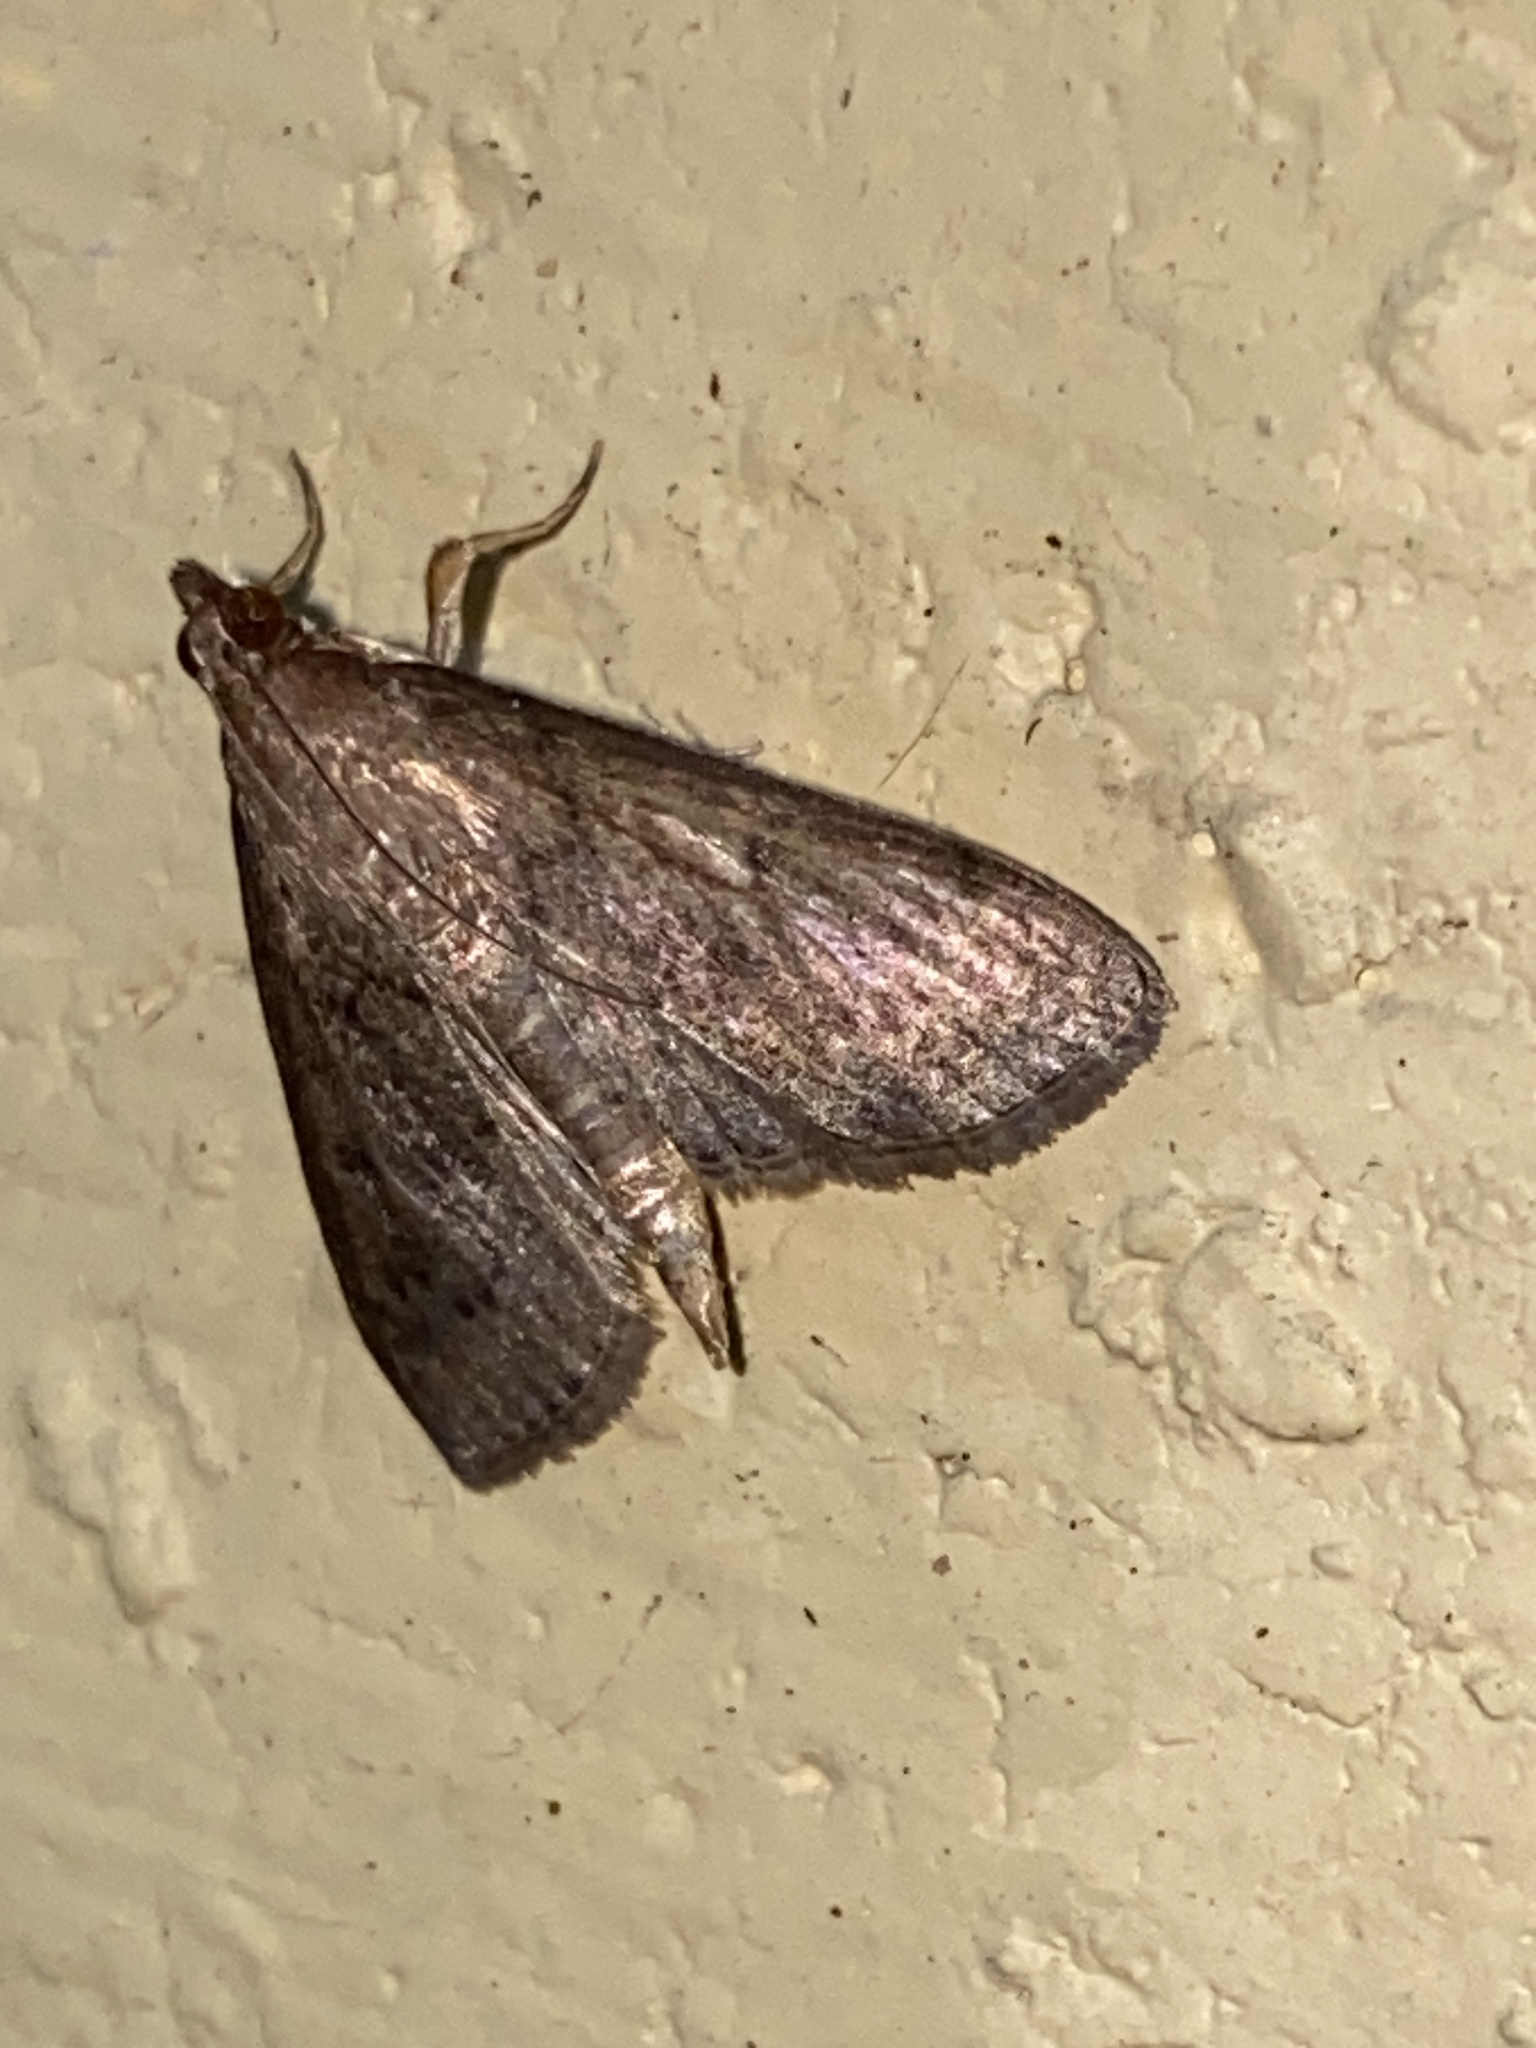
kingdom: Animalia
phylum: Arthropoda
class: Insecta
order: Lepidoptera
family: Crambidae
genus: Herpetogramma
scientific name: Herpetogramma licarsisalis
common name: Grass webworm
